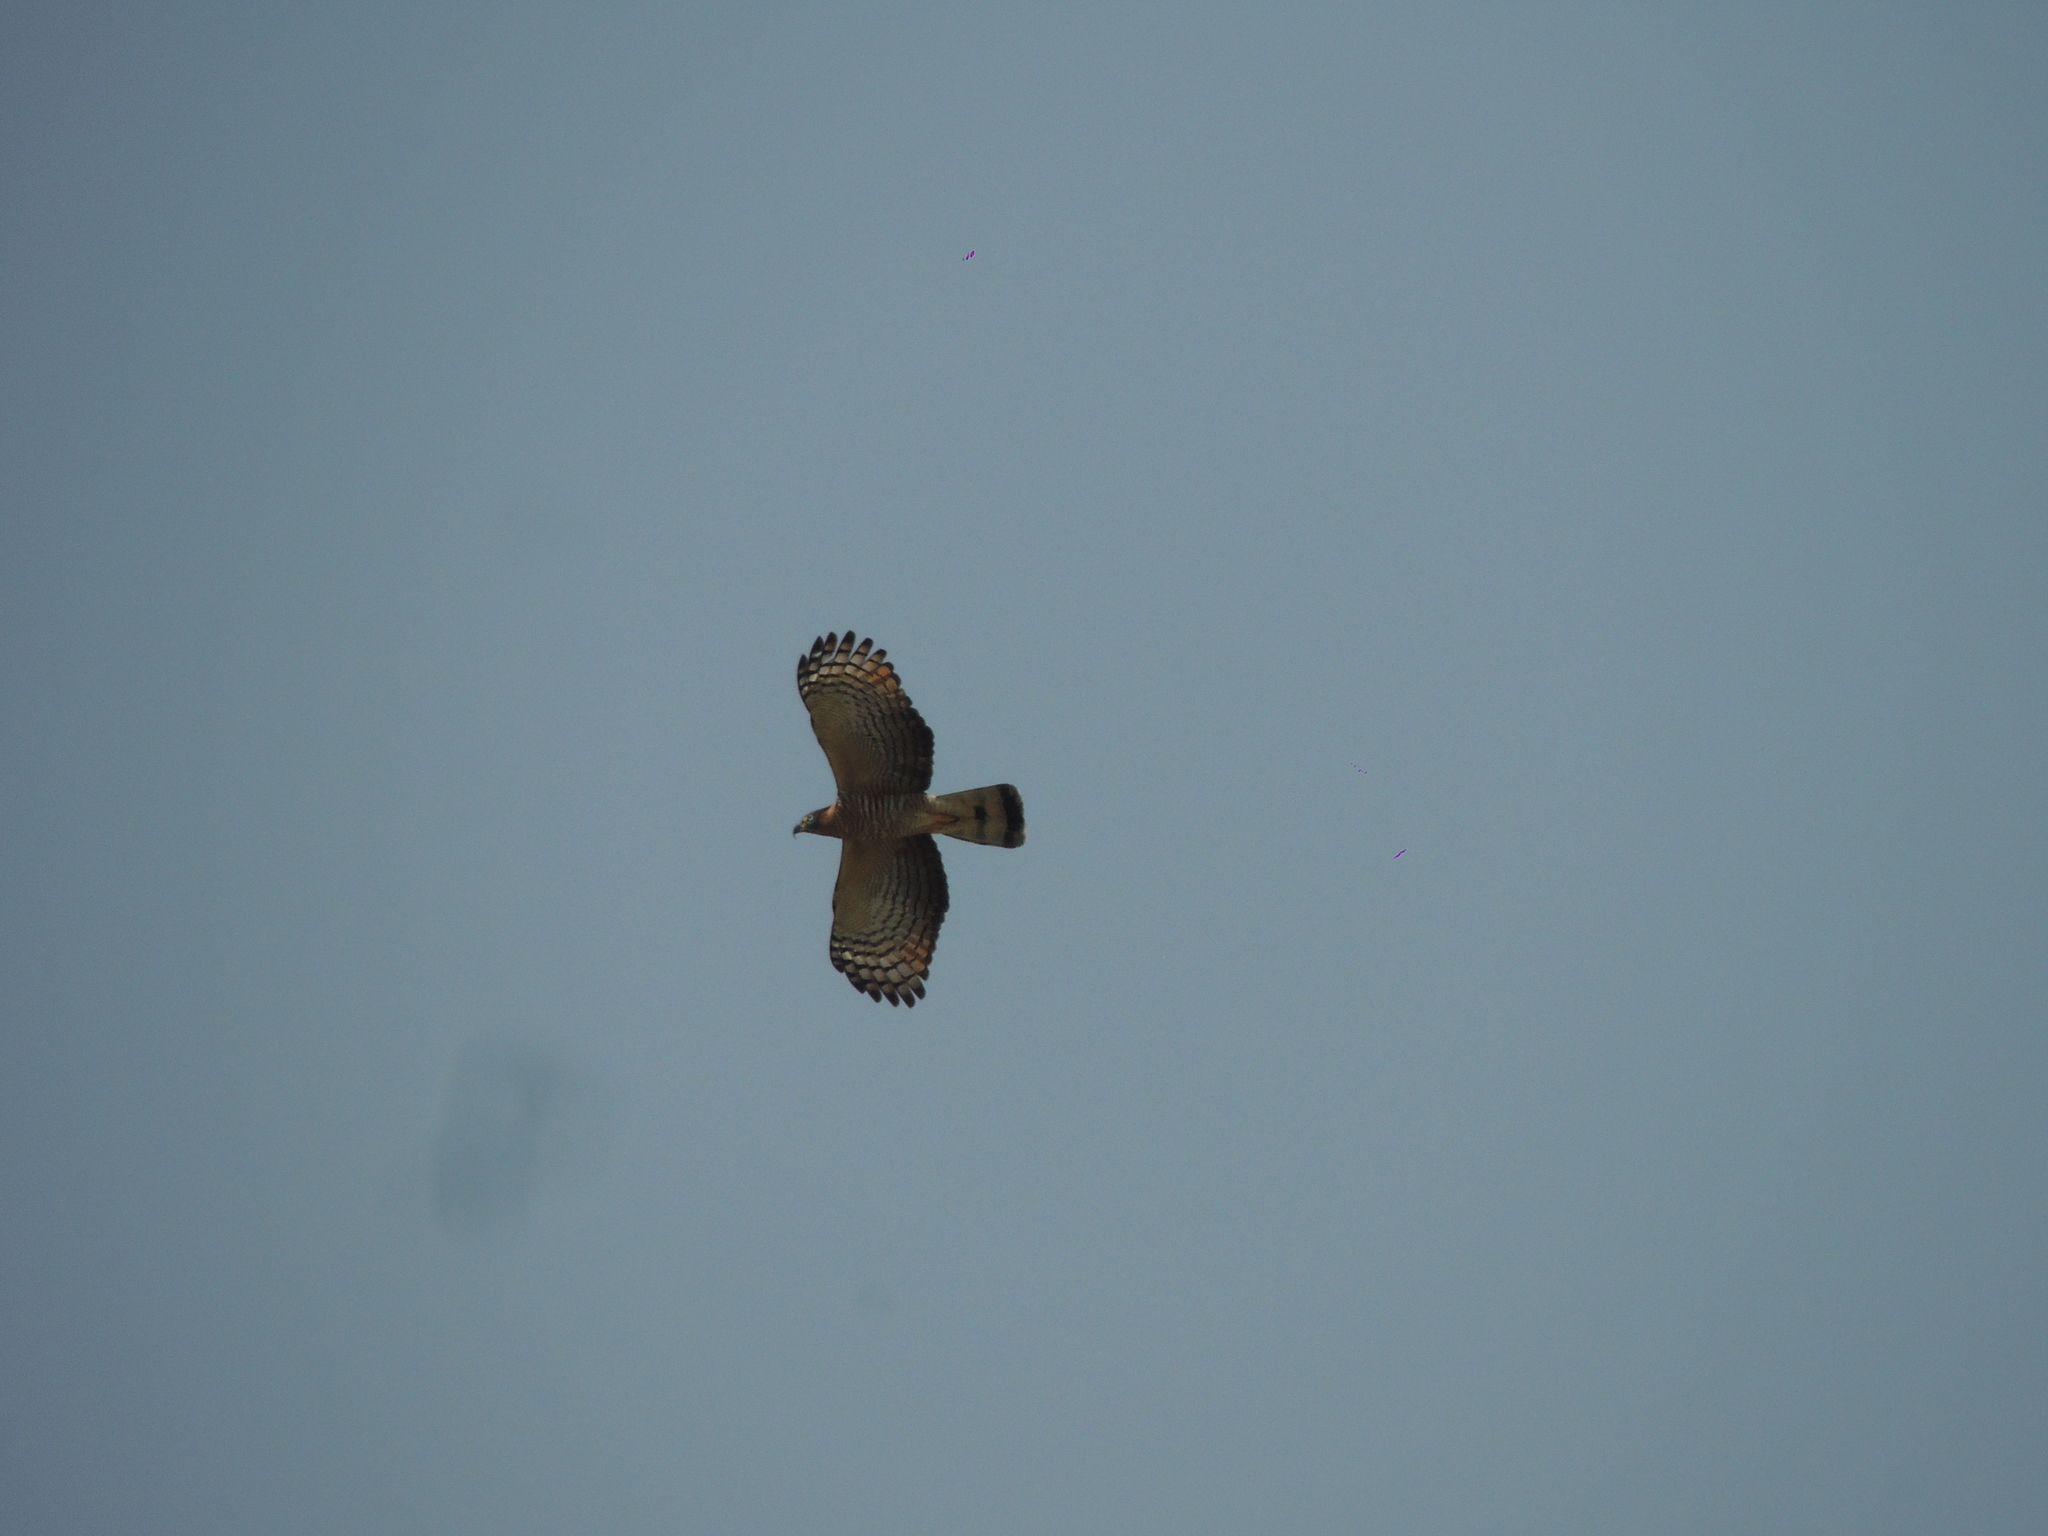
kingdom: Animalia
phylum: Chordata
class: Aves
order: Accipitriformes
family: Accipitridae
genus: Chondrohierax
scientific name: Chondrohierax uncinatus
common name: Hook-billed kite
